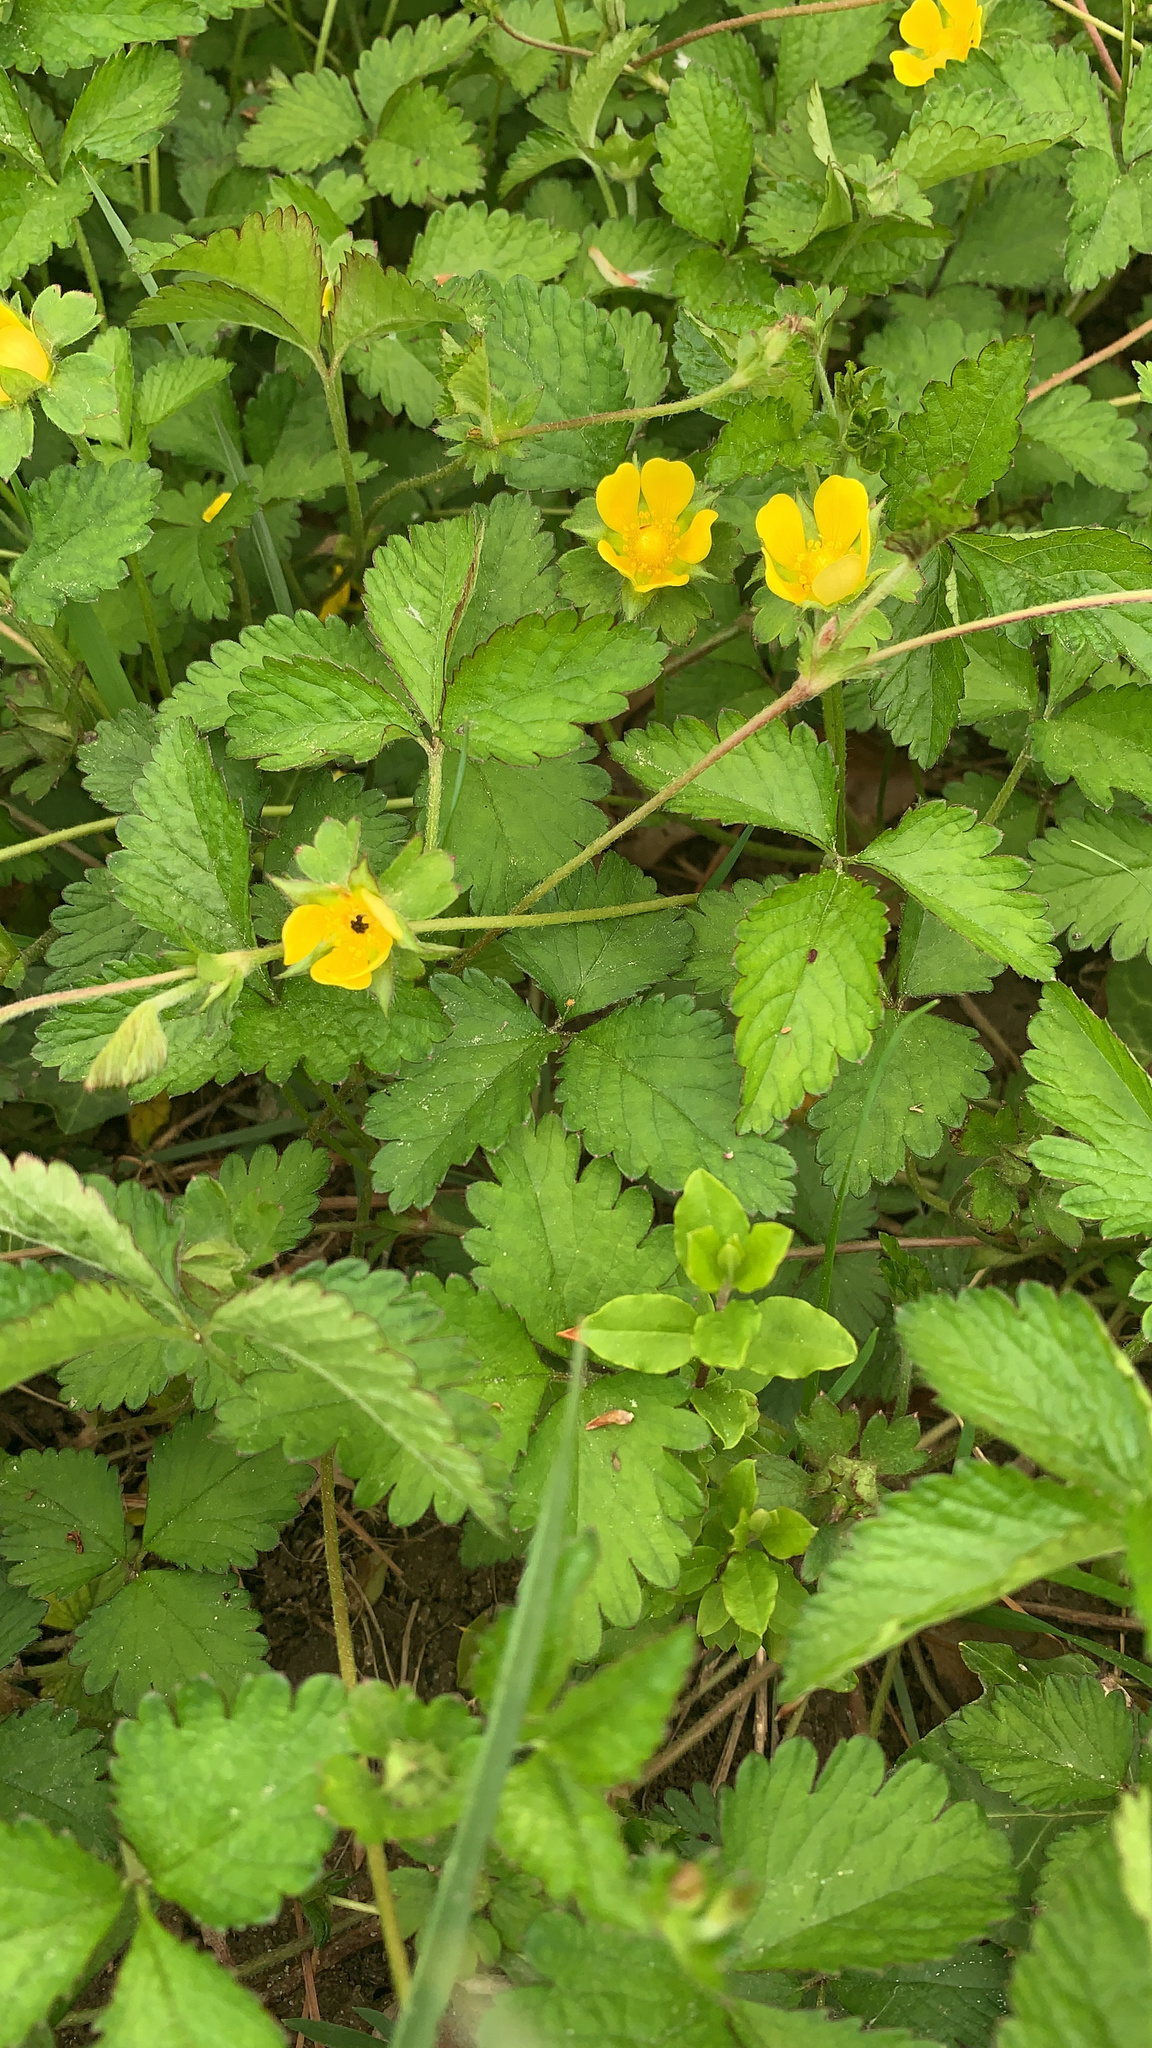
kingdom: Plantae
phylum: Tracheophyta
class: Magnoliopsida
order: Rosales
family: Rosaceae
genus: Potentilla
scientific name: Potentilla indica
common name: Yellow-flowered strawberry
